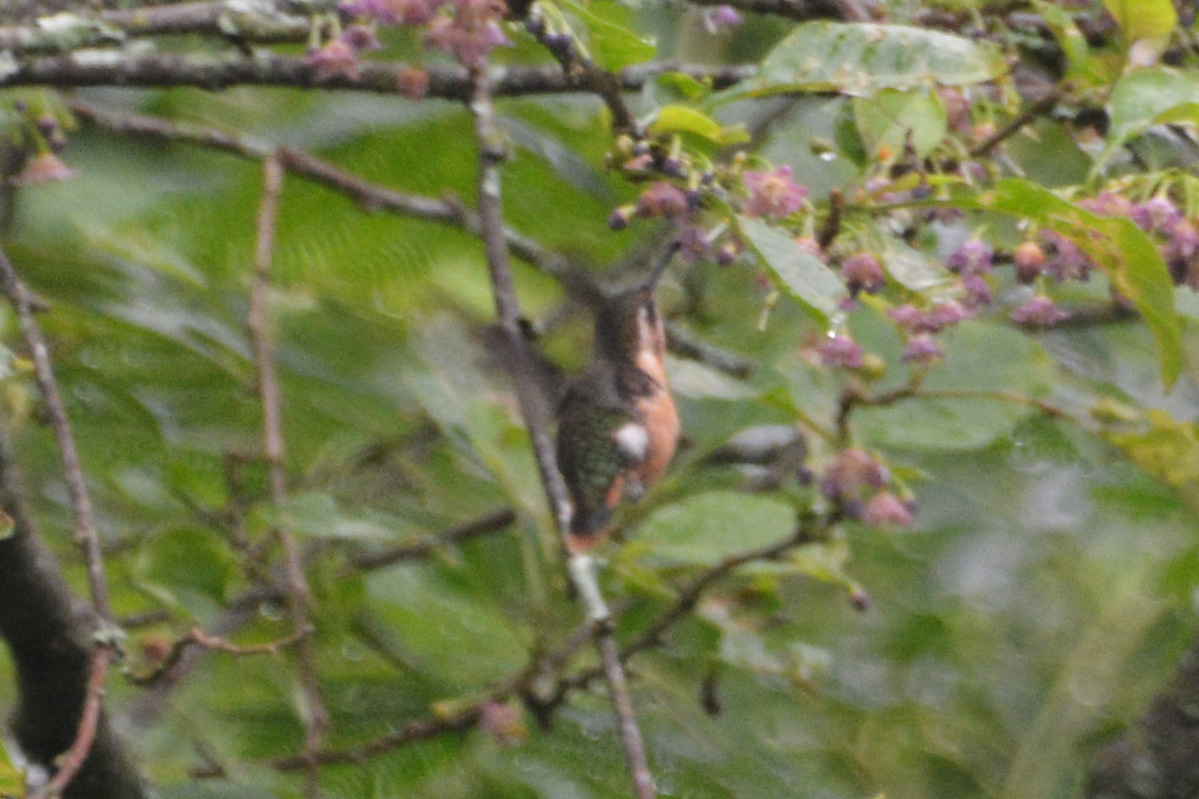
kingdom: Animalia
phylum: Chordata
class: Aves
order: Apodiformes
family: Trochilidae
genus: Microstilbon
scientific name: Microstilbon burmeisteri
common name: Slender-tailed woodstar
